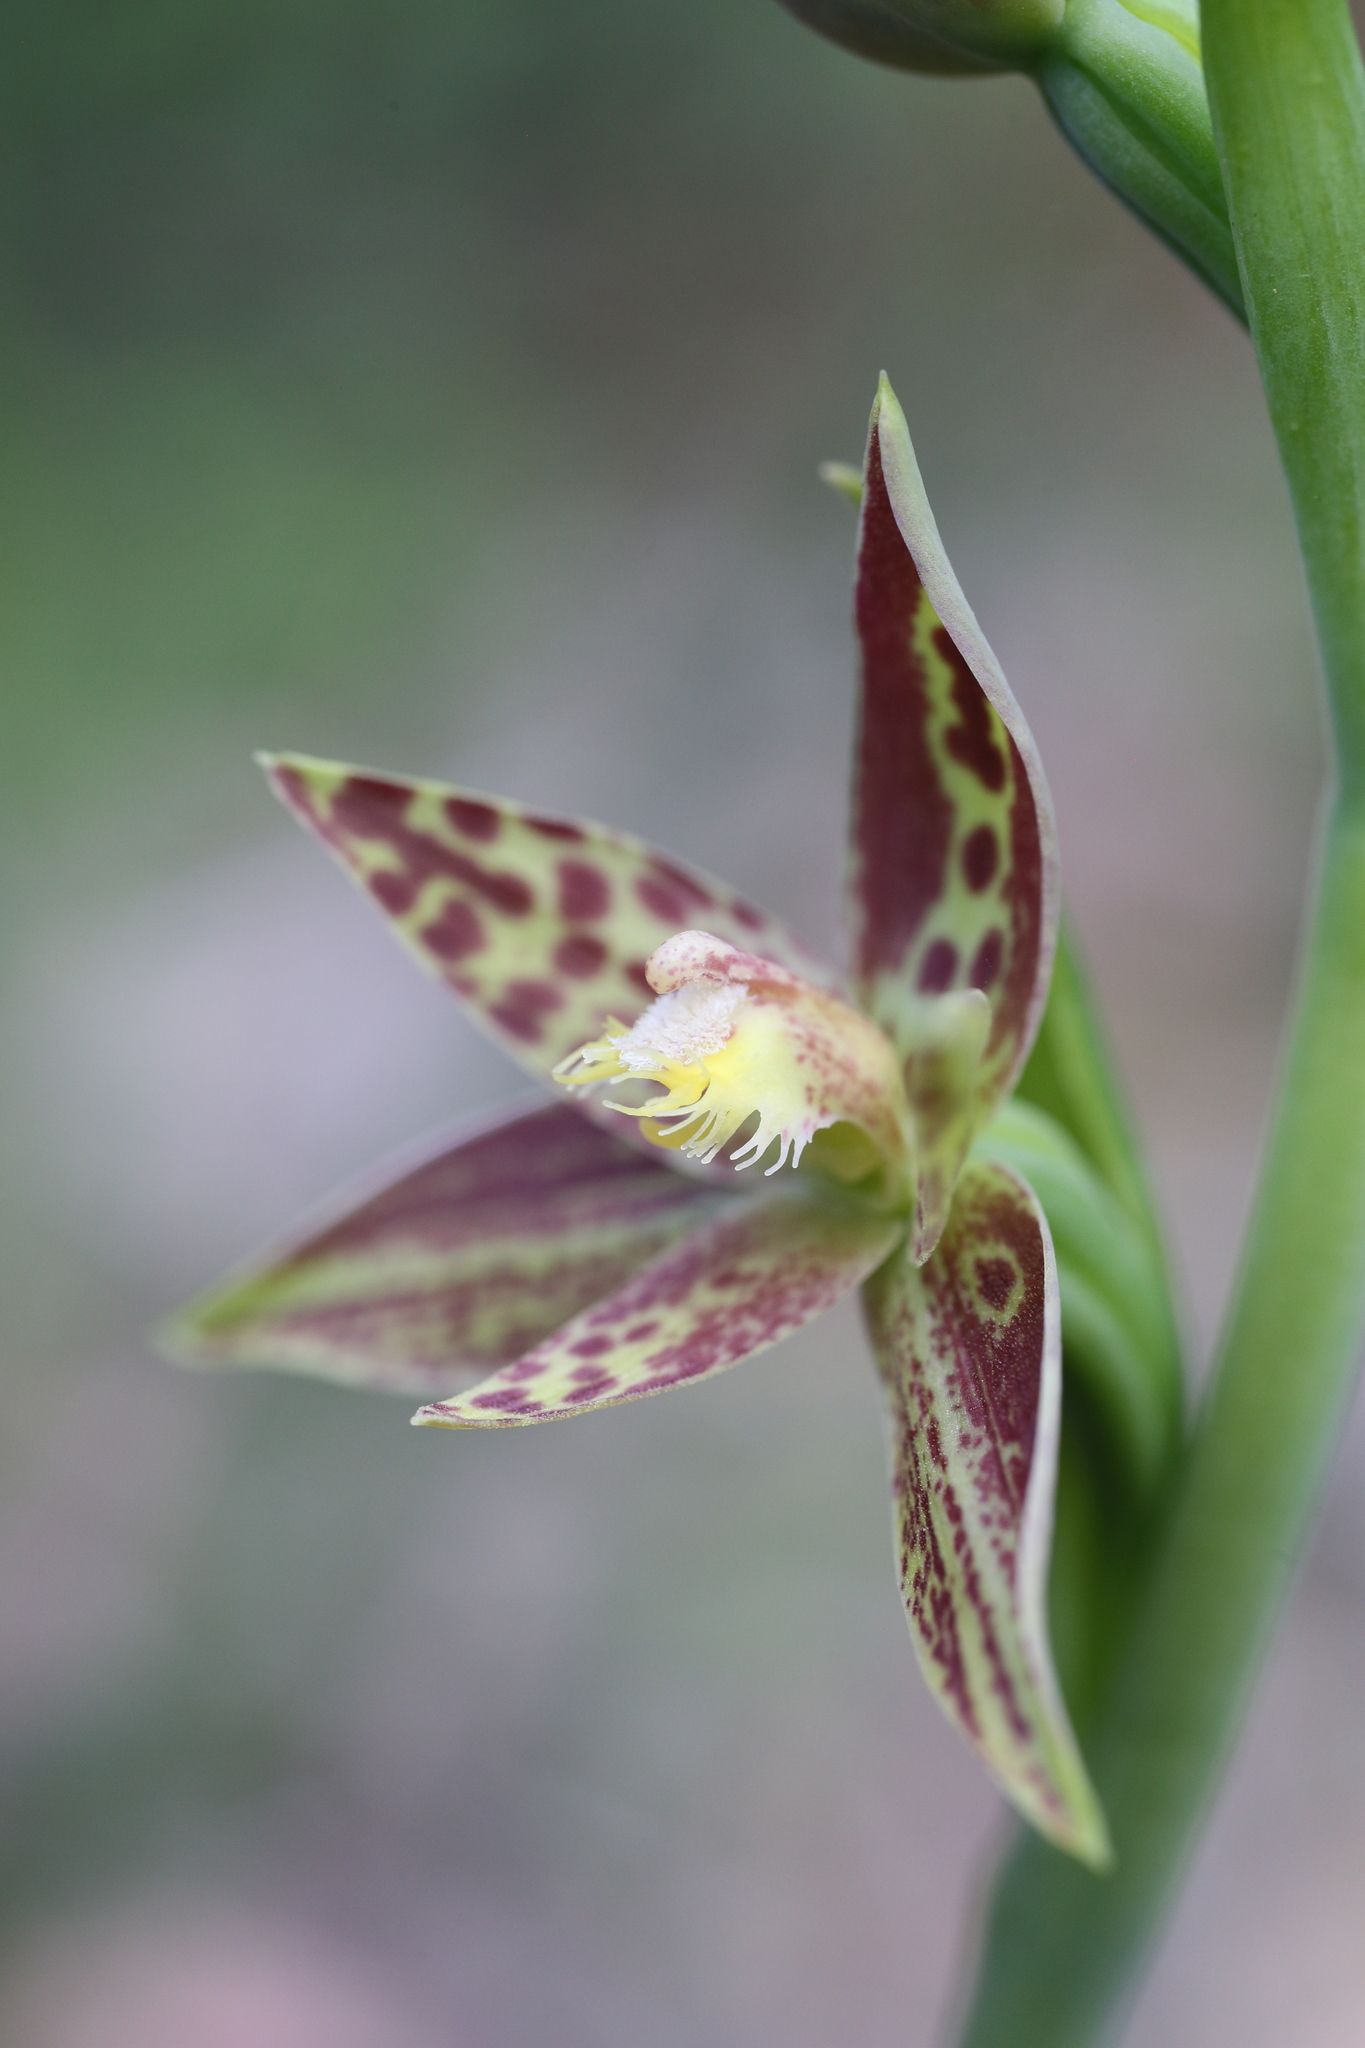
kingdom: Plantae
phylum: Tracheophyta
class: Liliopsida
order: Asparagales
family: Orchidaceae
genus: Thelymitra
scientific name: Thelymitra benthamiana
